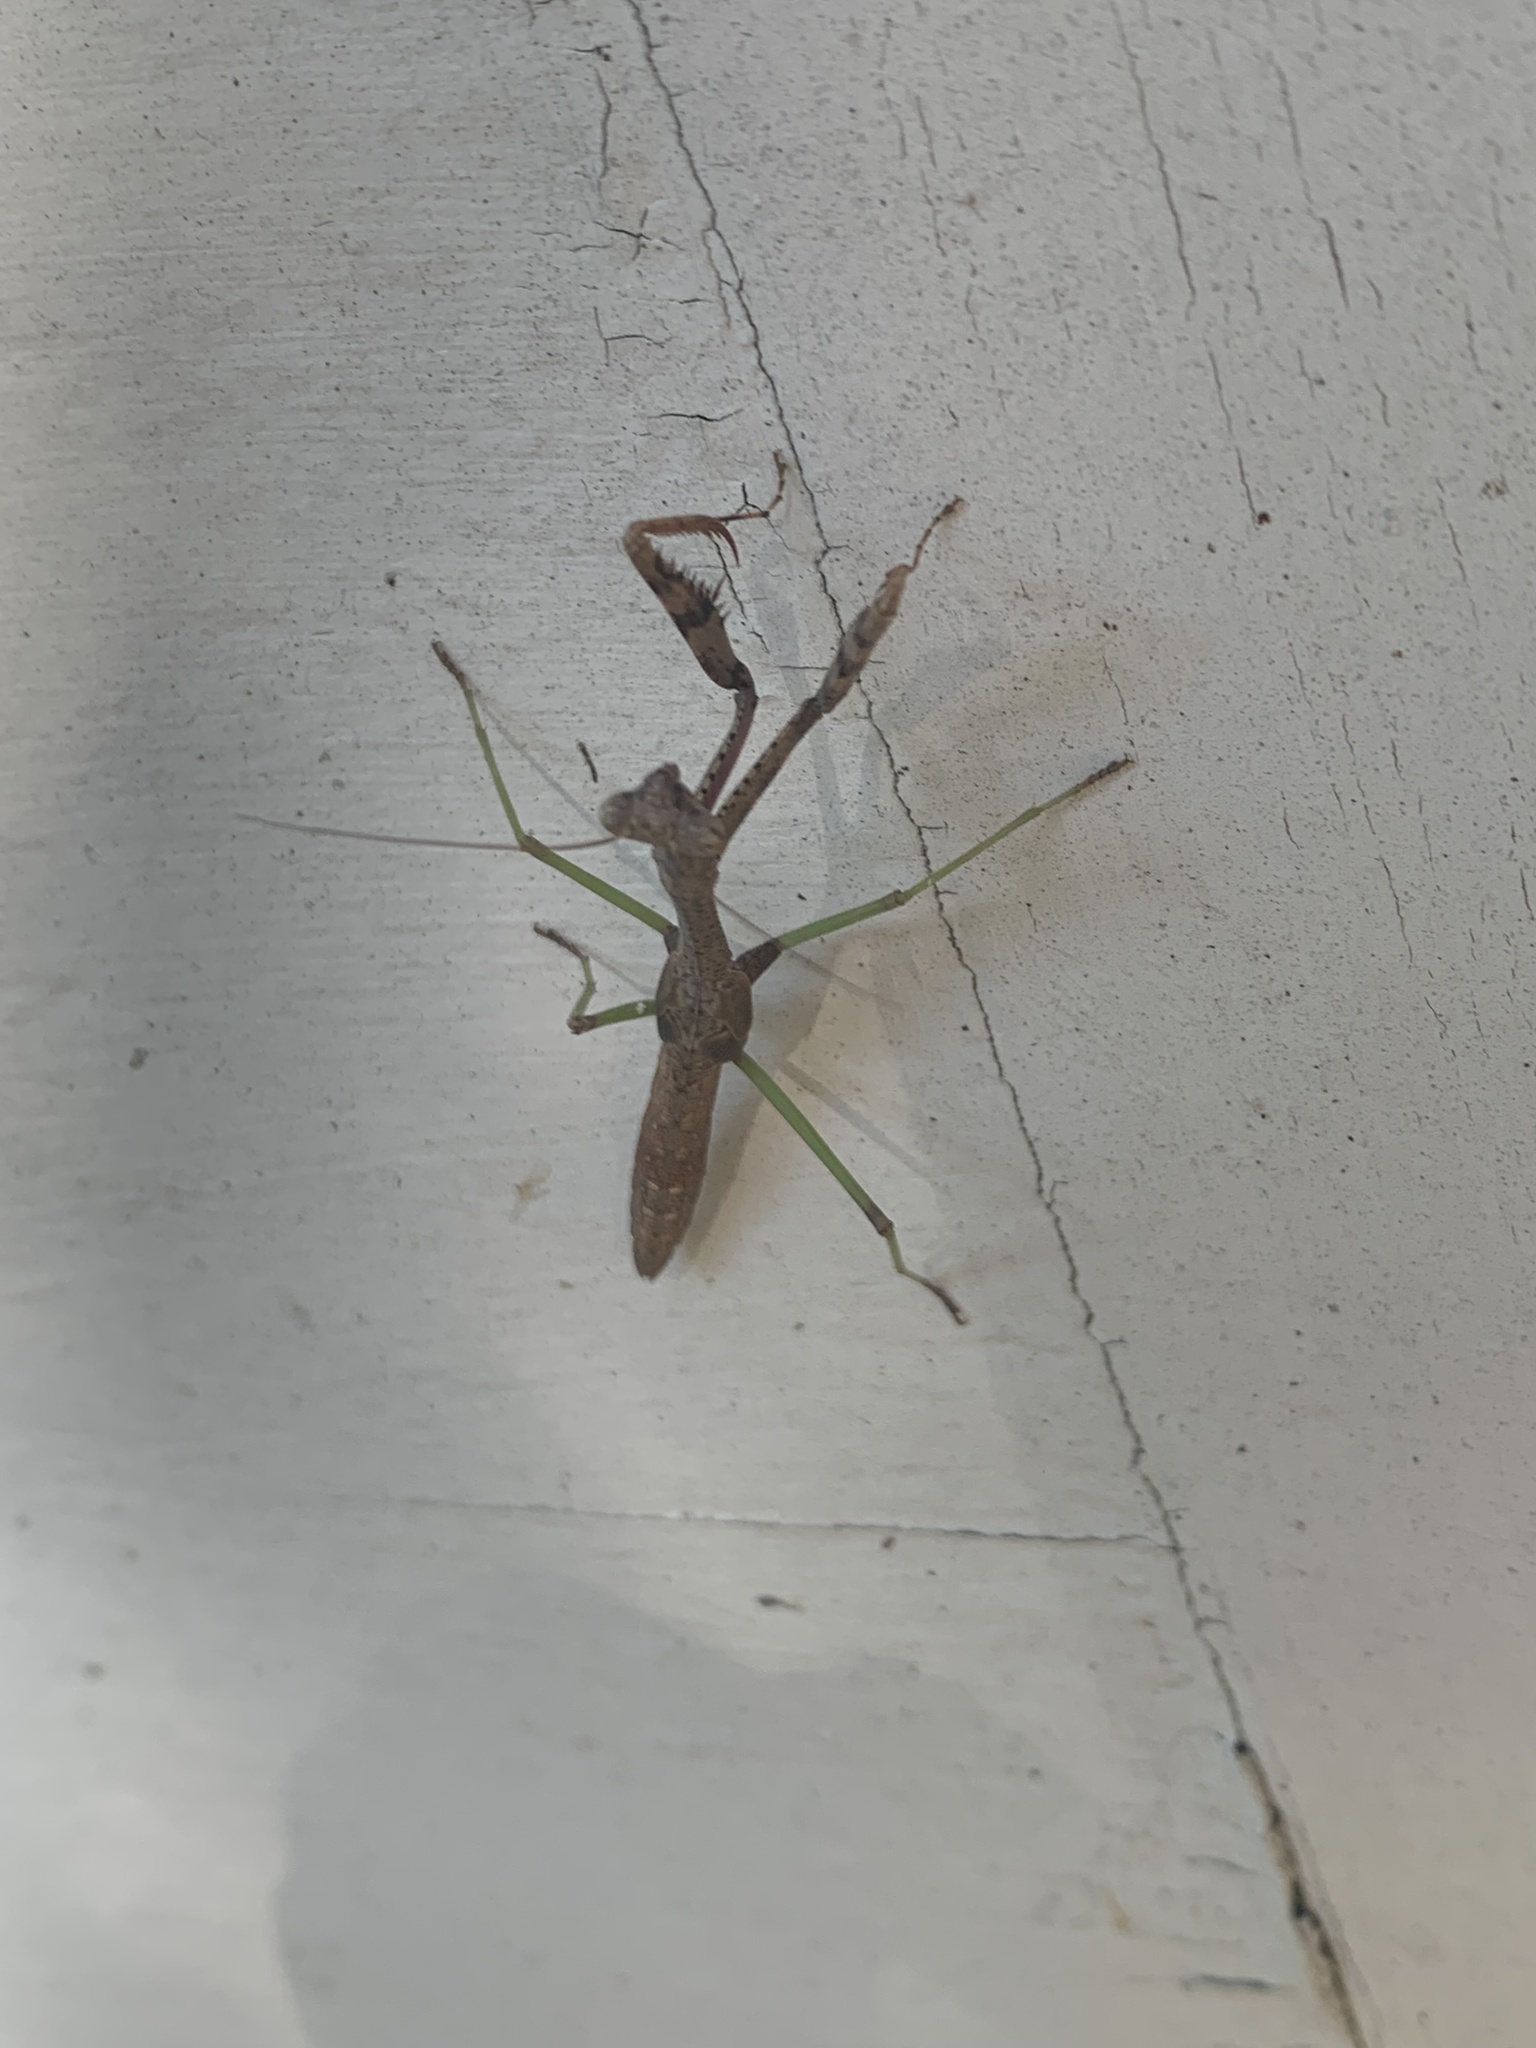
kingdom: Animalia
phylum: Arthropoda
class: Insecta
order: Mantodea
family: Mantidae
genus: Stagmomantis
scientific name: Stagmomantis carolina
